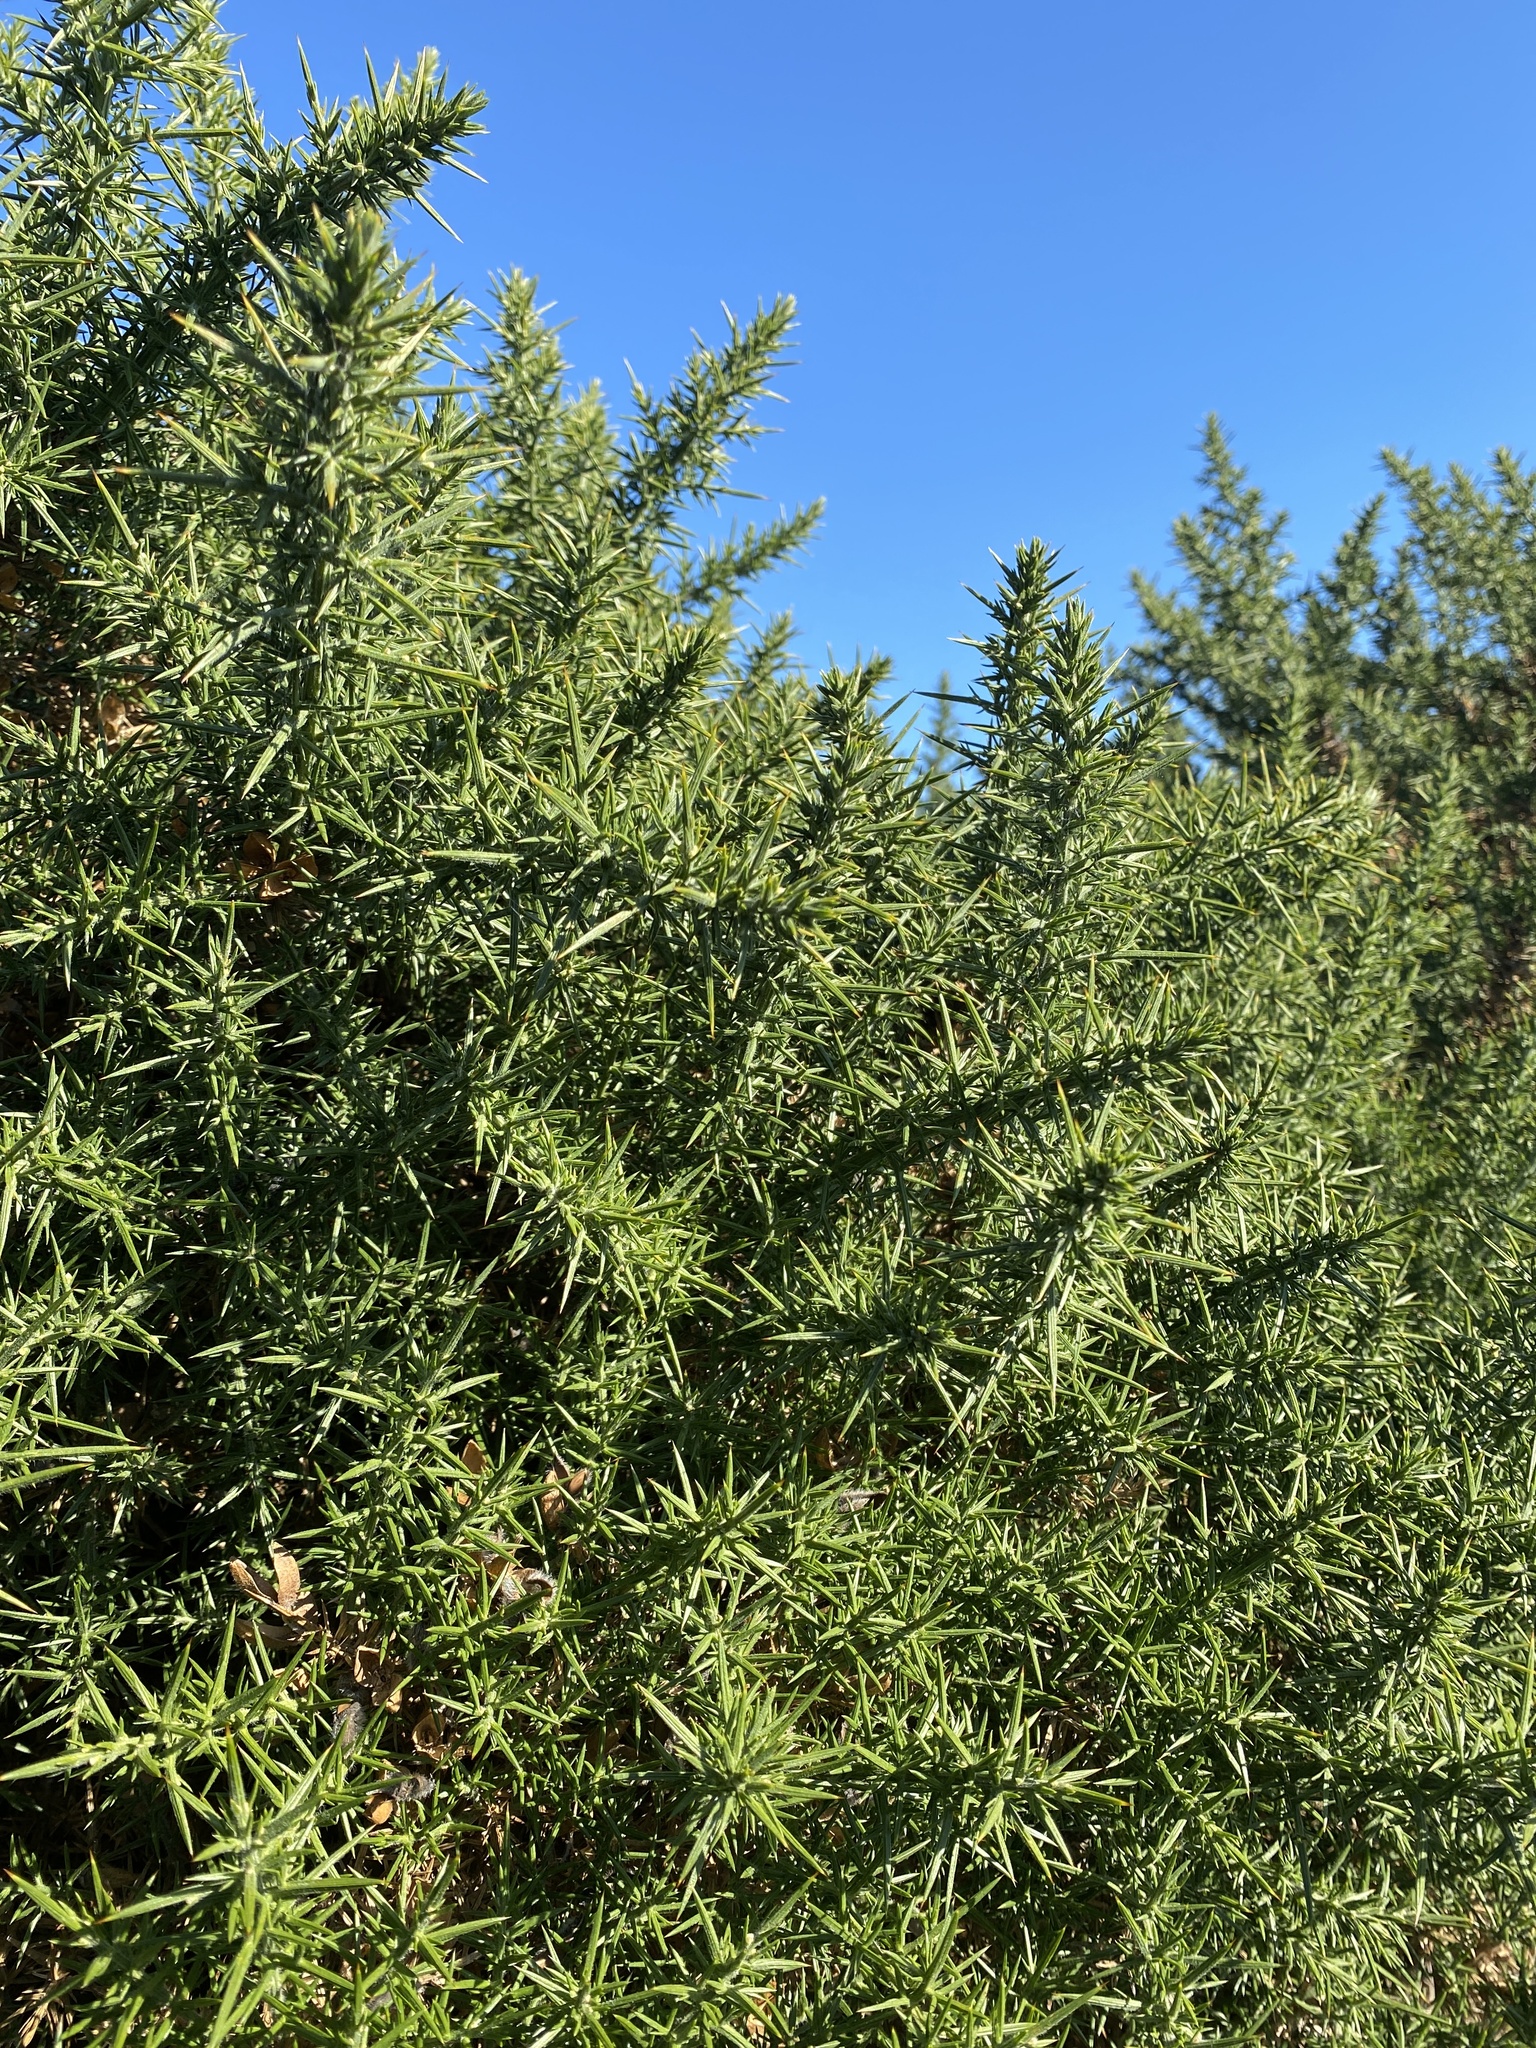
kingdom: Plantae
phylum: Tracheophyta
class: Magnoliopsida
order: Fabales
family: Fabaceae
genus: Ulex
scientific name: Ulex europaeus
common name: Common gorse
